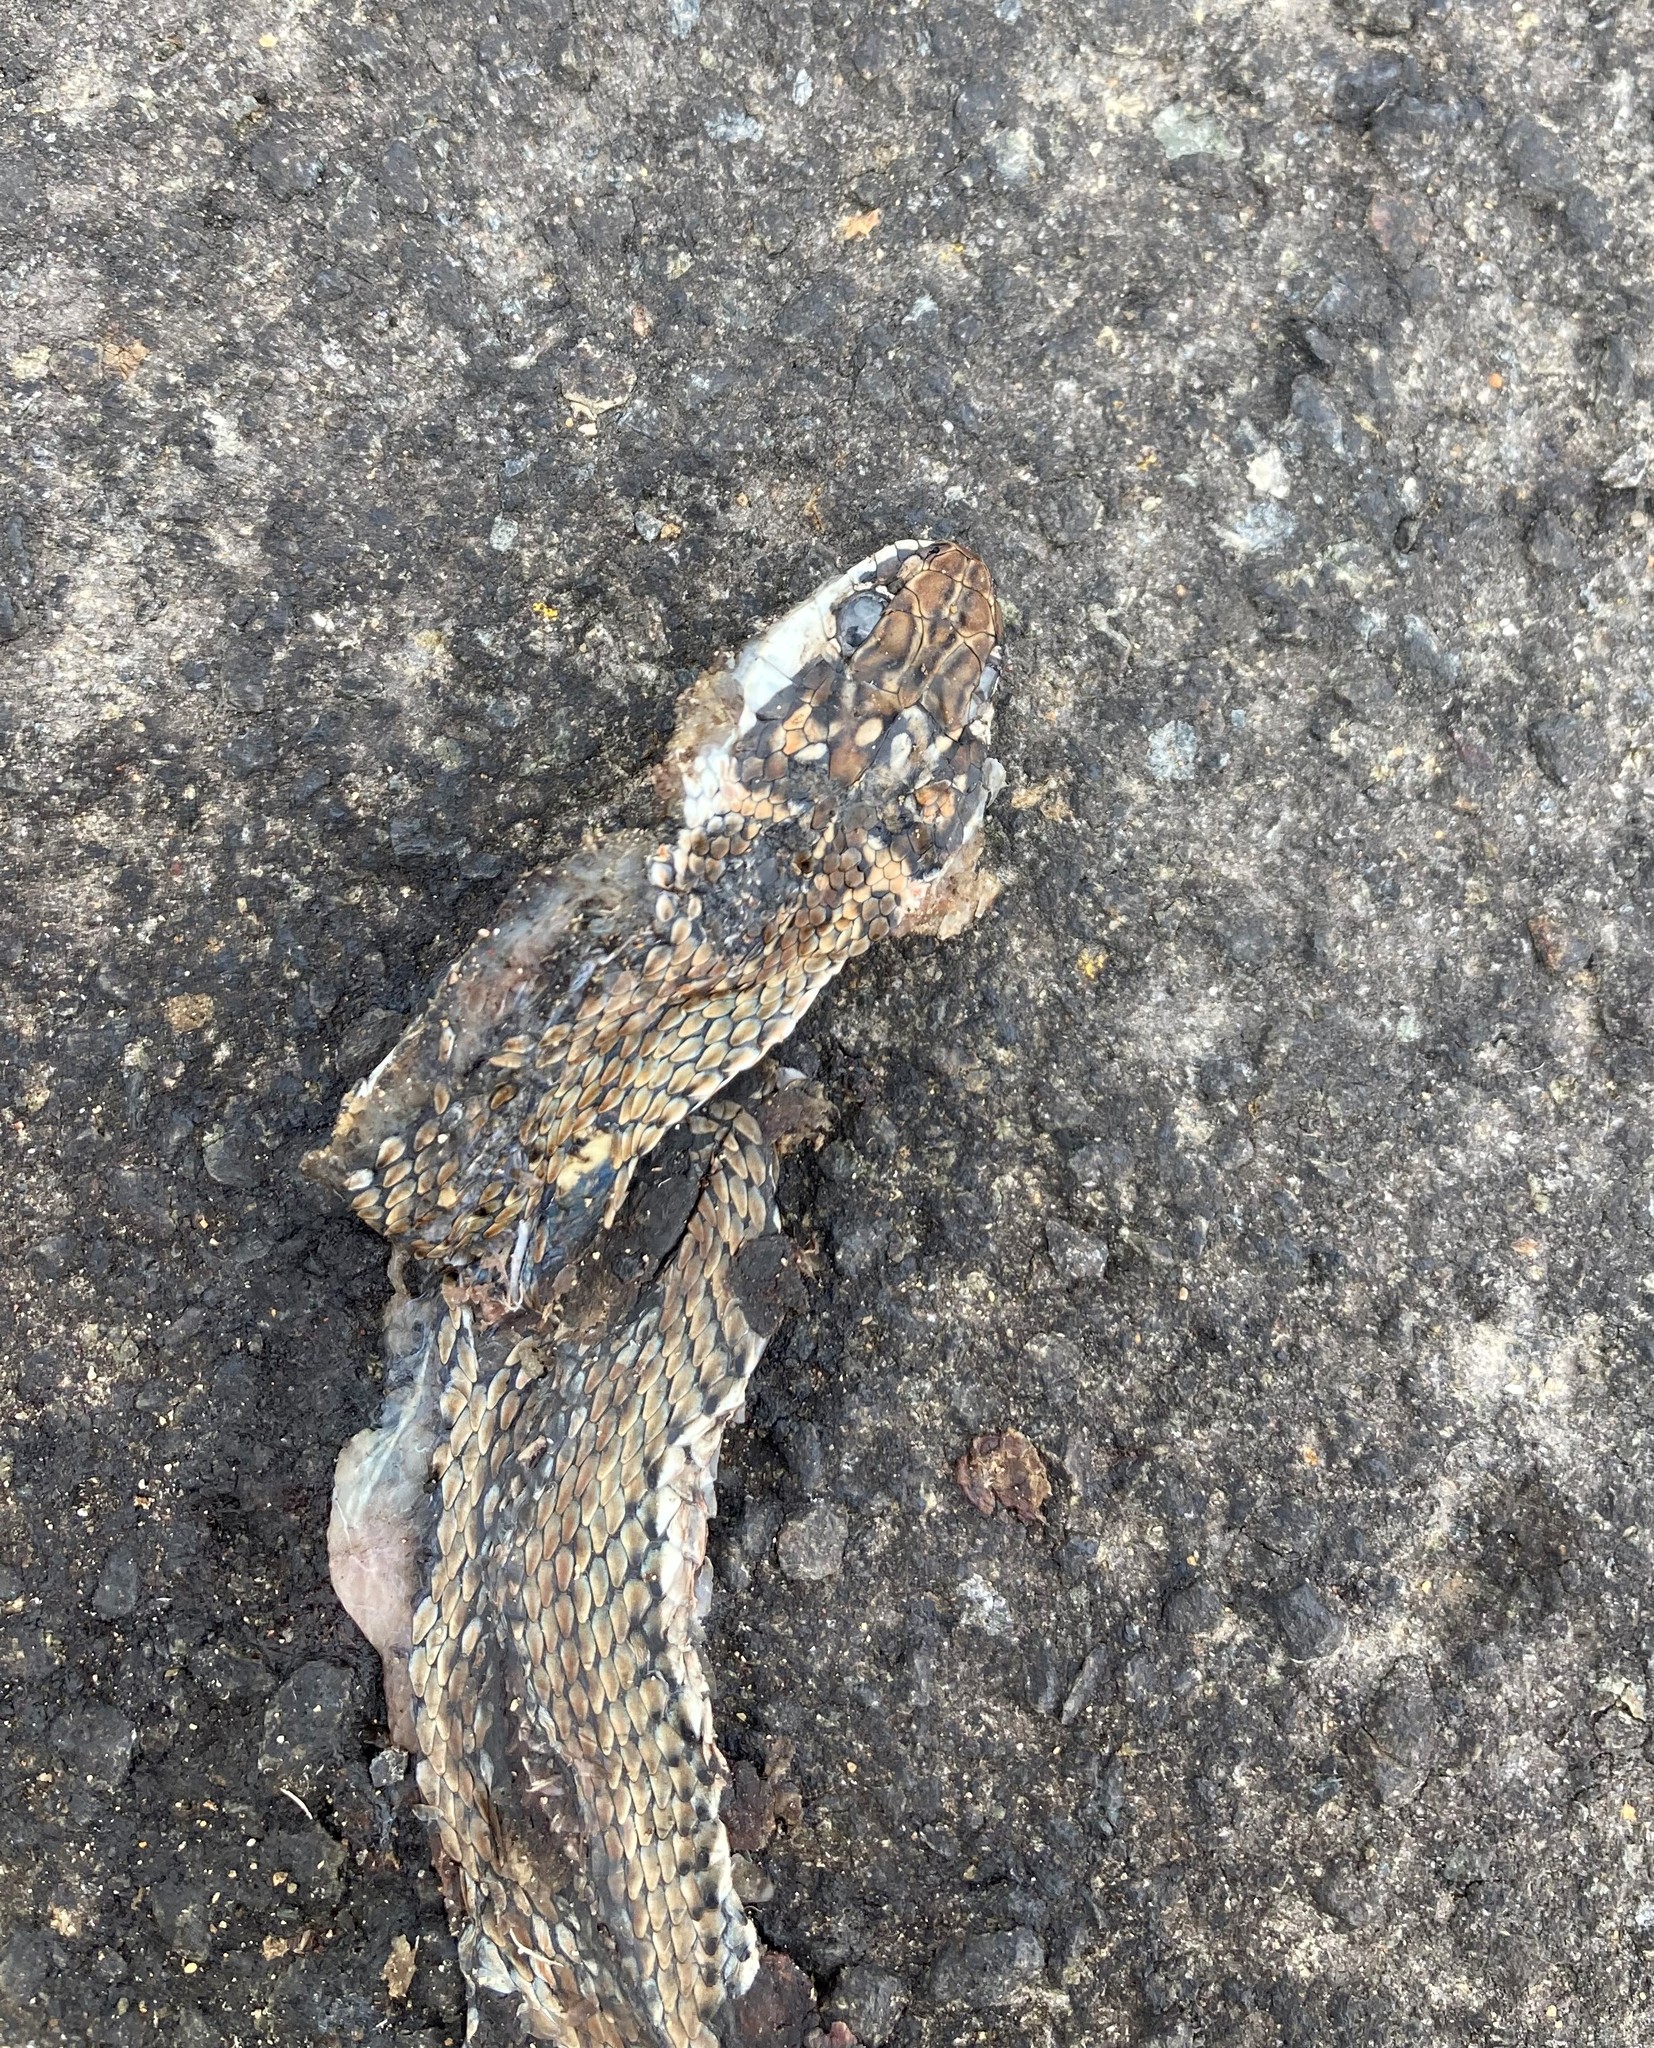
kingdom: Animalia
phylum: Chordata
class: Squamata
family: Psammophiidae
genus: Psammophis
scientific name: Psammophis notostictus
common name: Karoo sand snake
